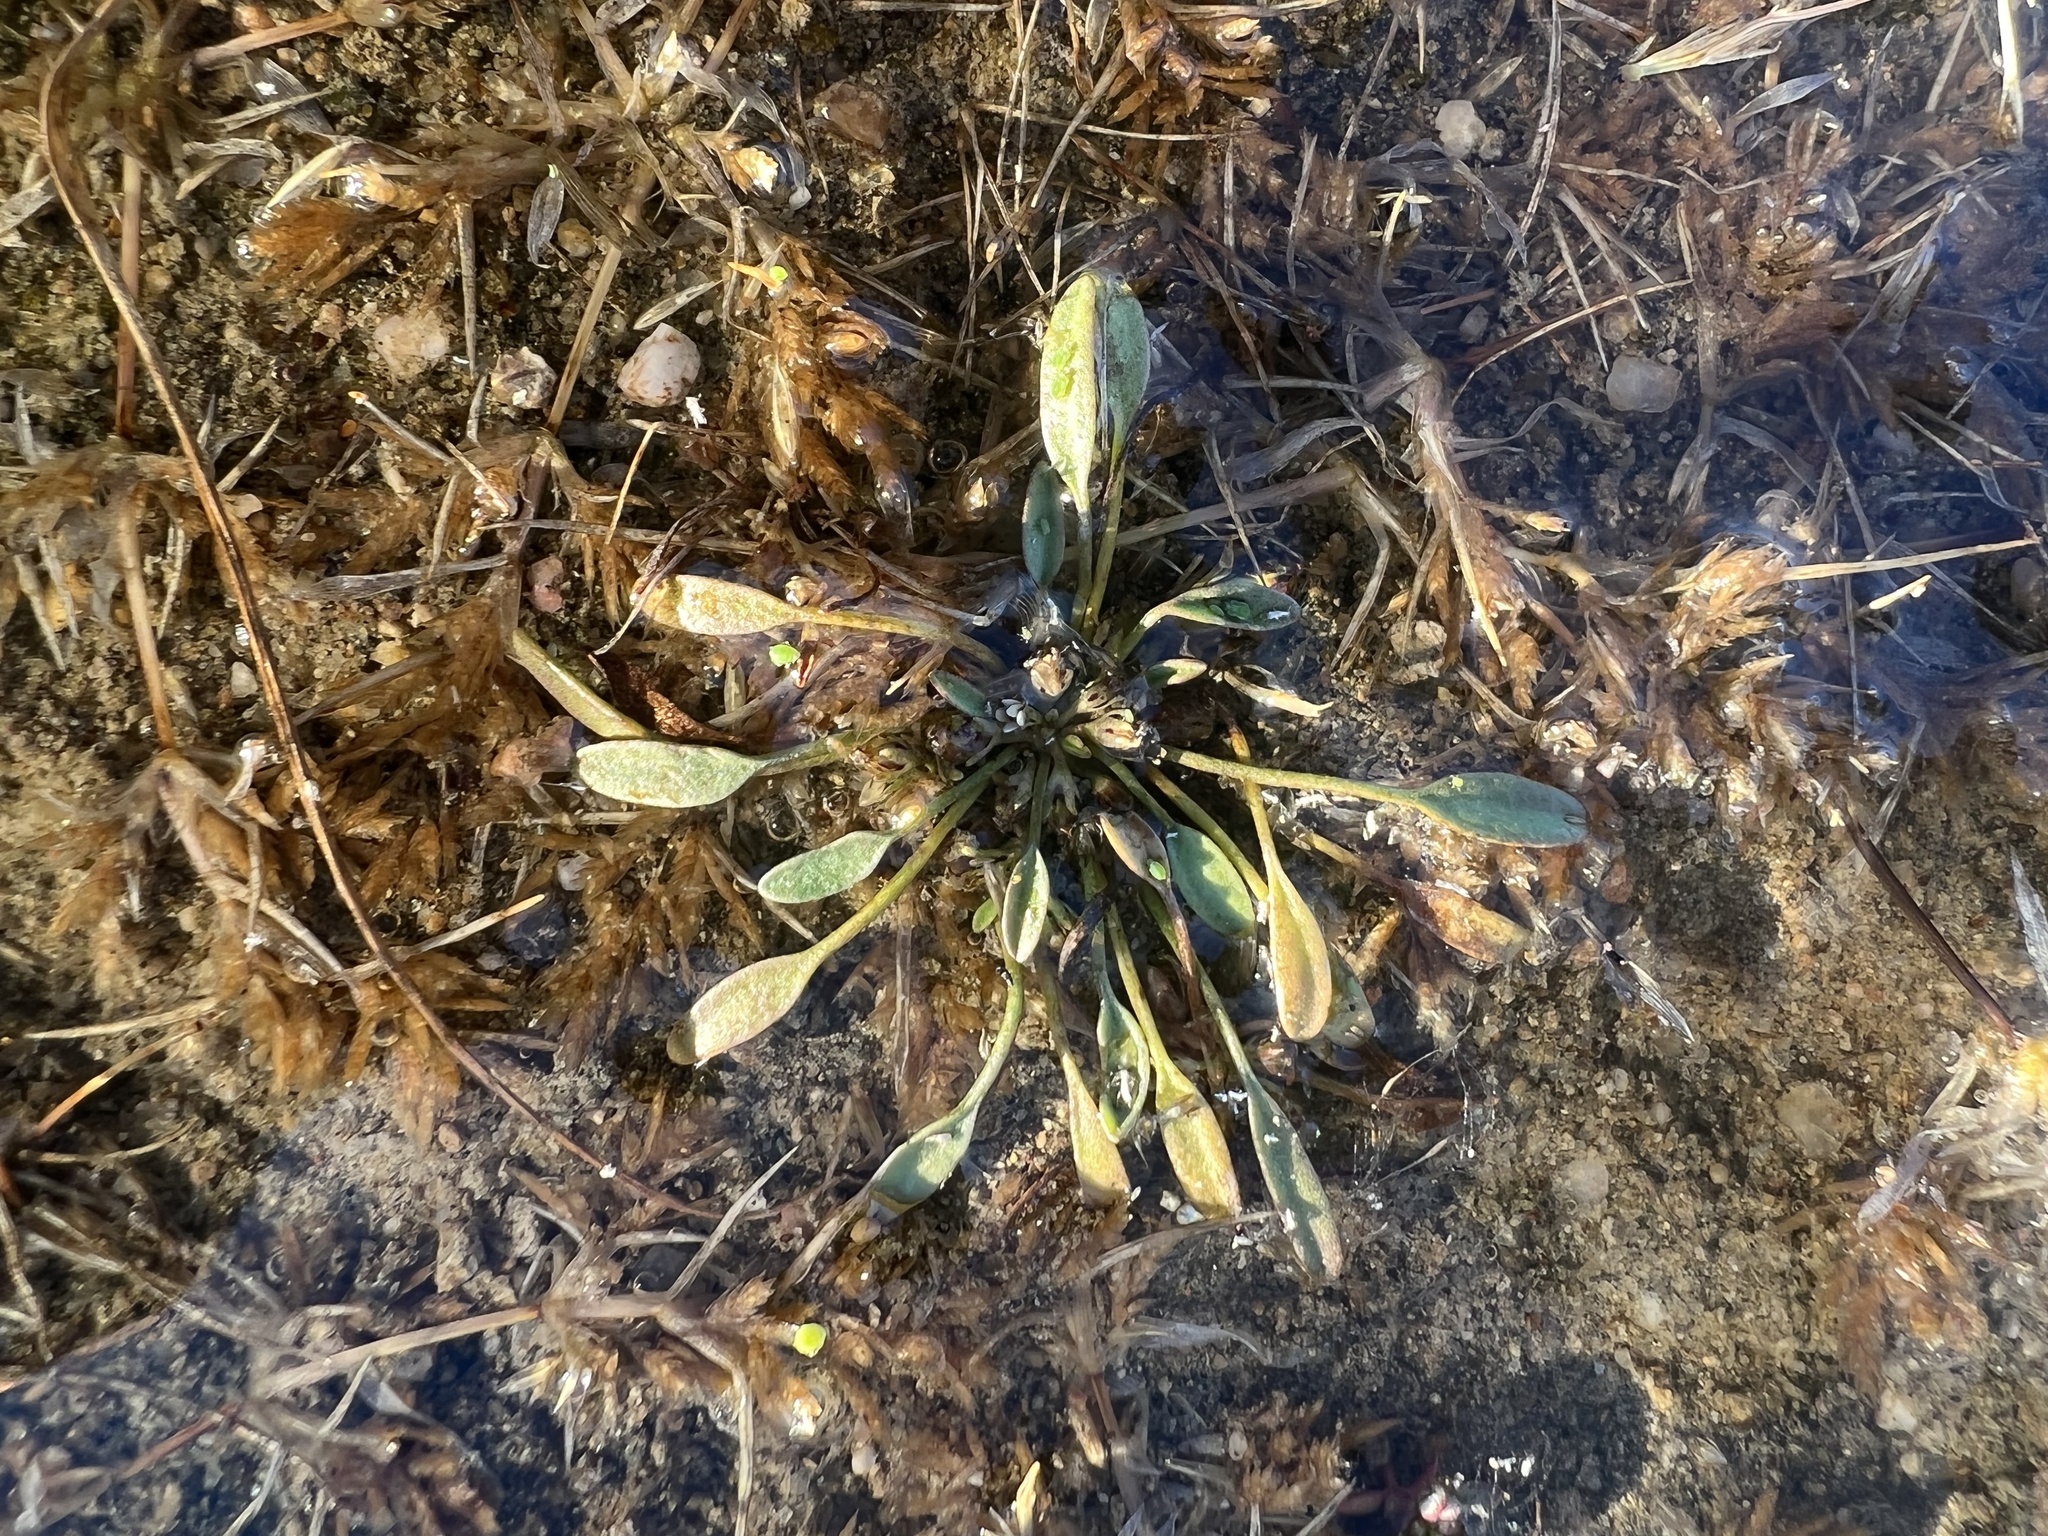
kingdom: Plantae
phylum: Tracheophyta
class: Magnoliopsida
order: Lamiales
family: Scrophulariaceae
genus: Limosella
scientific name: Limosella aquatica
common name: Mudwort
